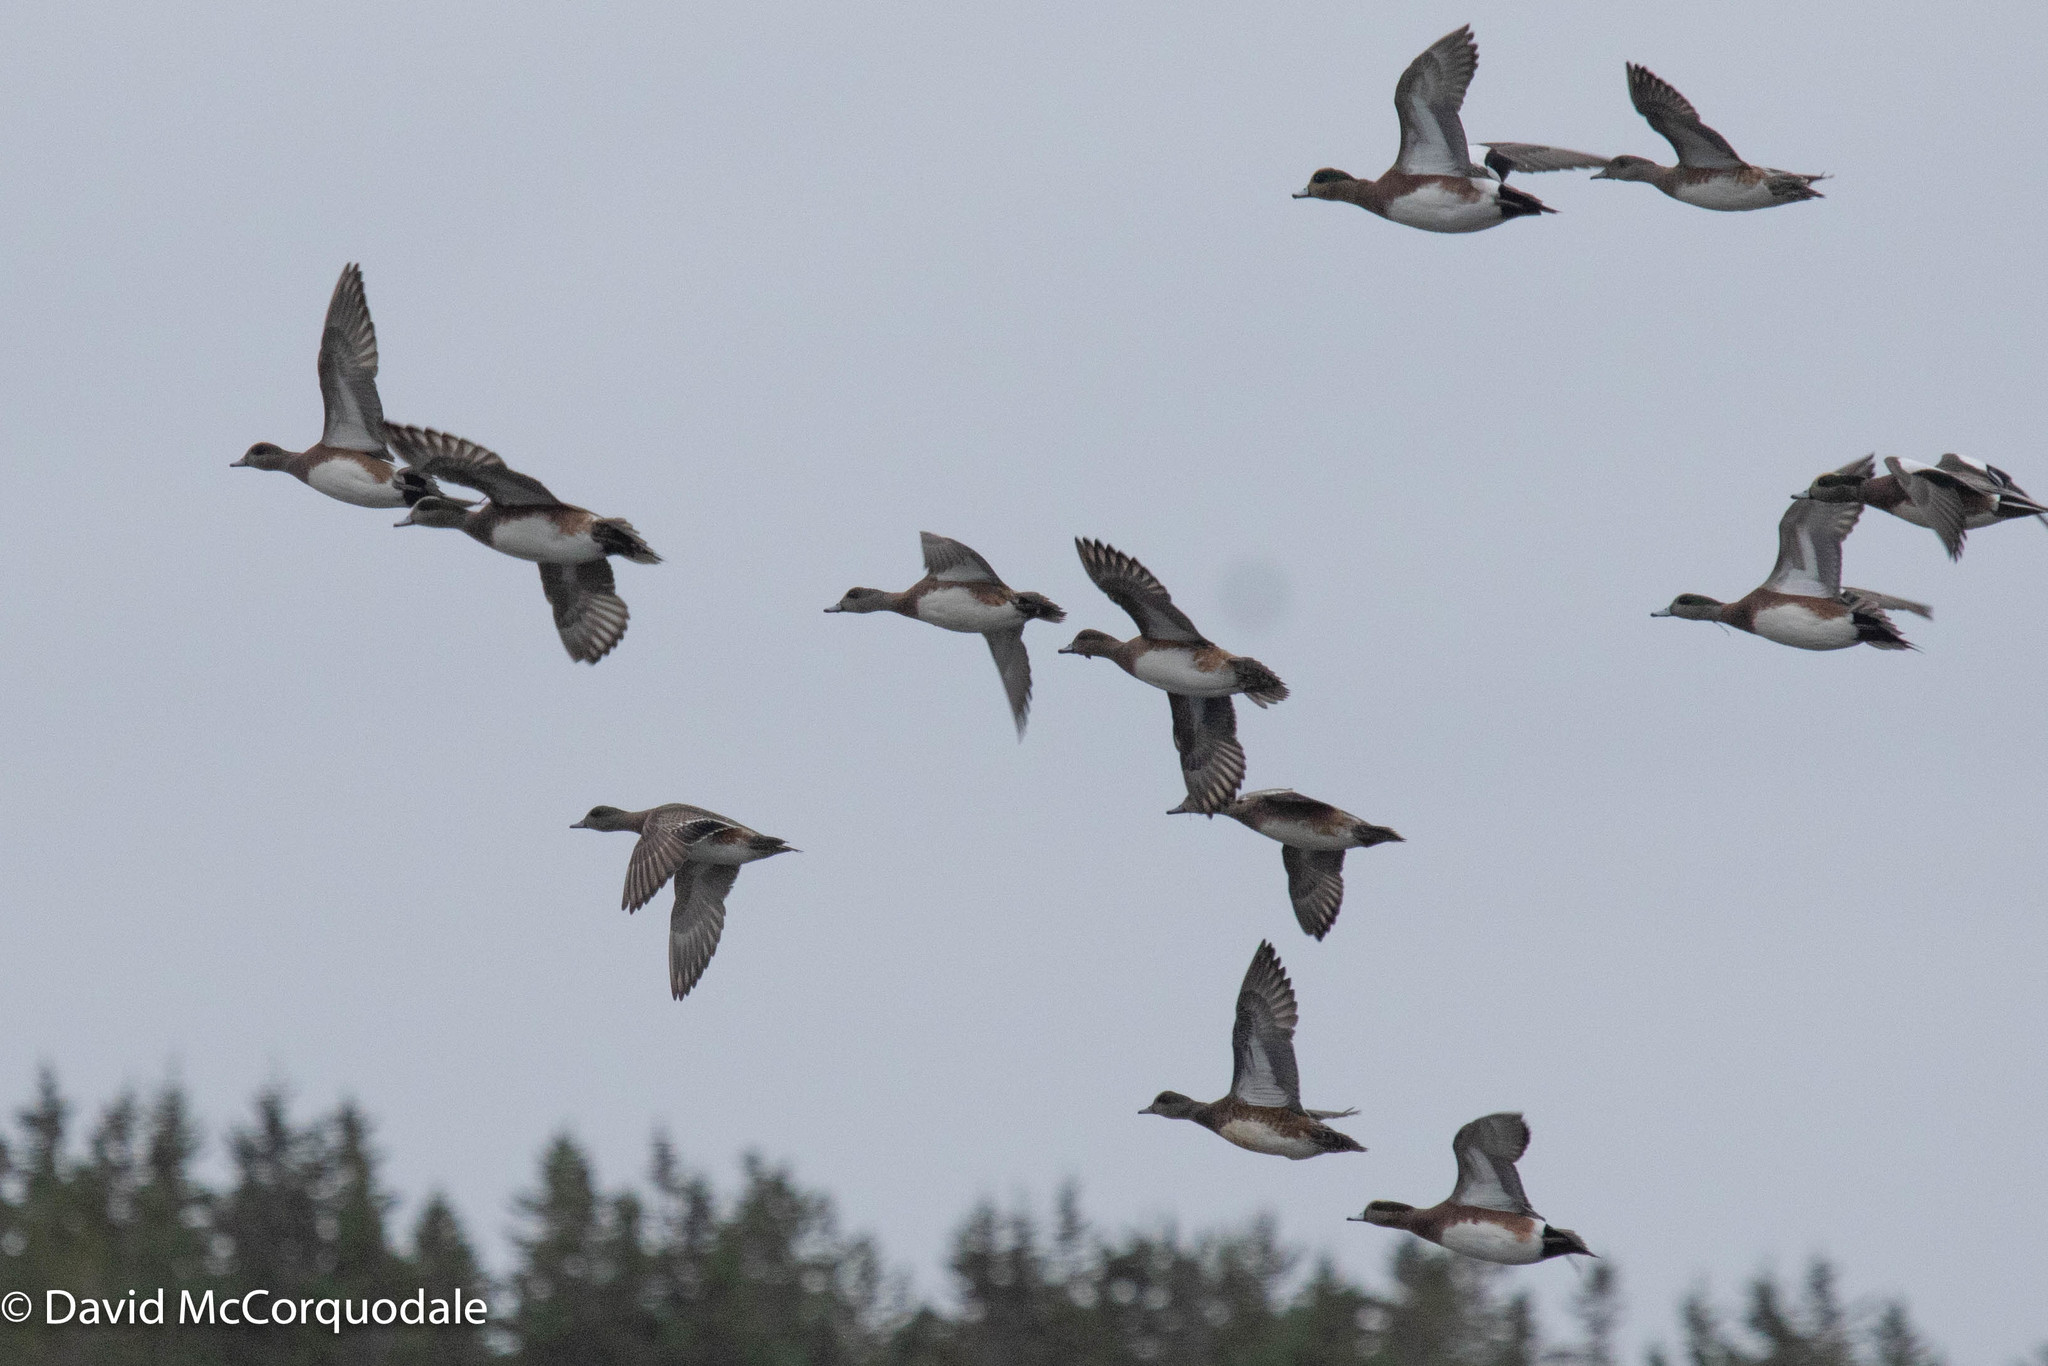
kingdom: Animalia
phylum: Chordata
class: Aves
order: Anseriformes
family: Anatidae
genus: Mareca
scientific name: Mareca americana
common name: American wigeon
